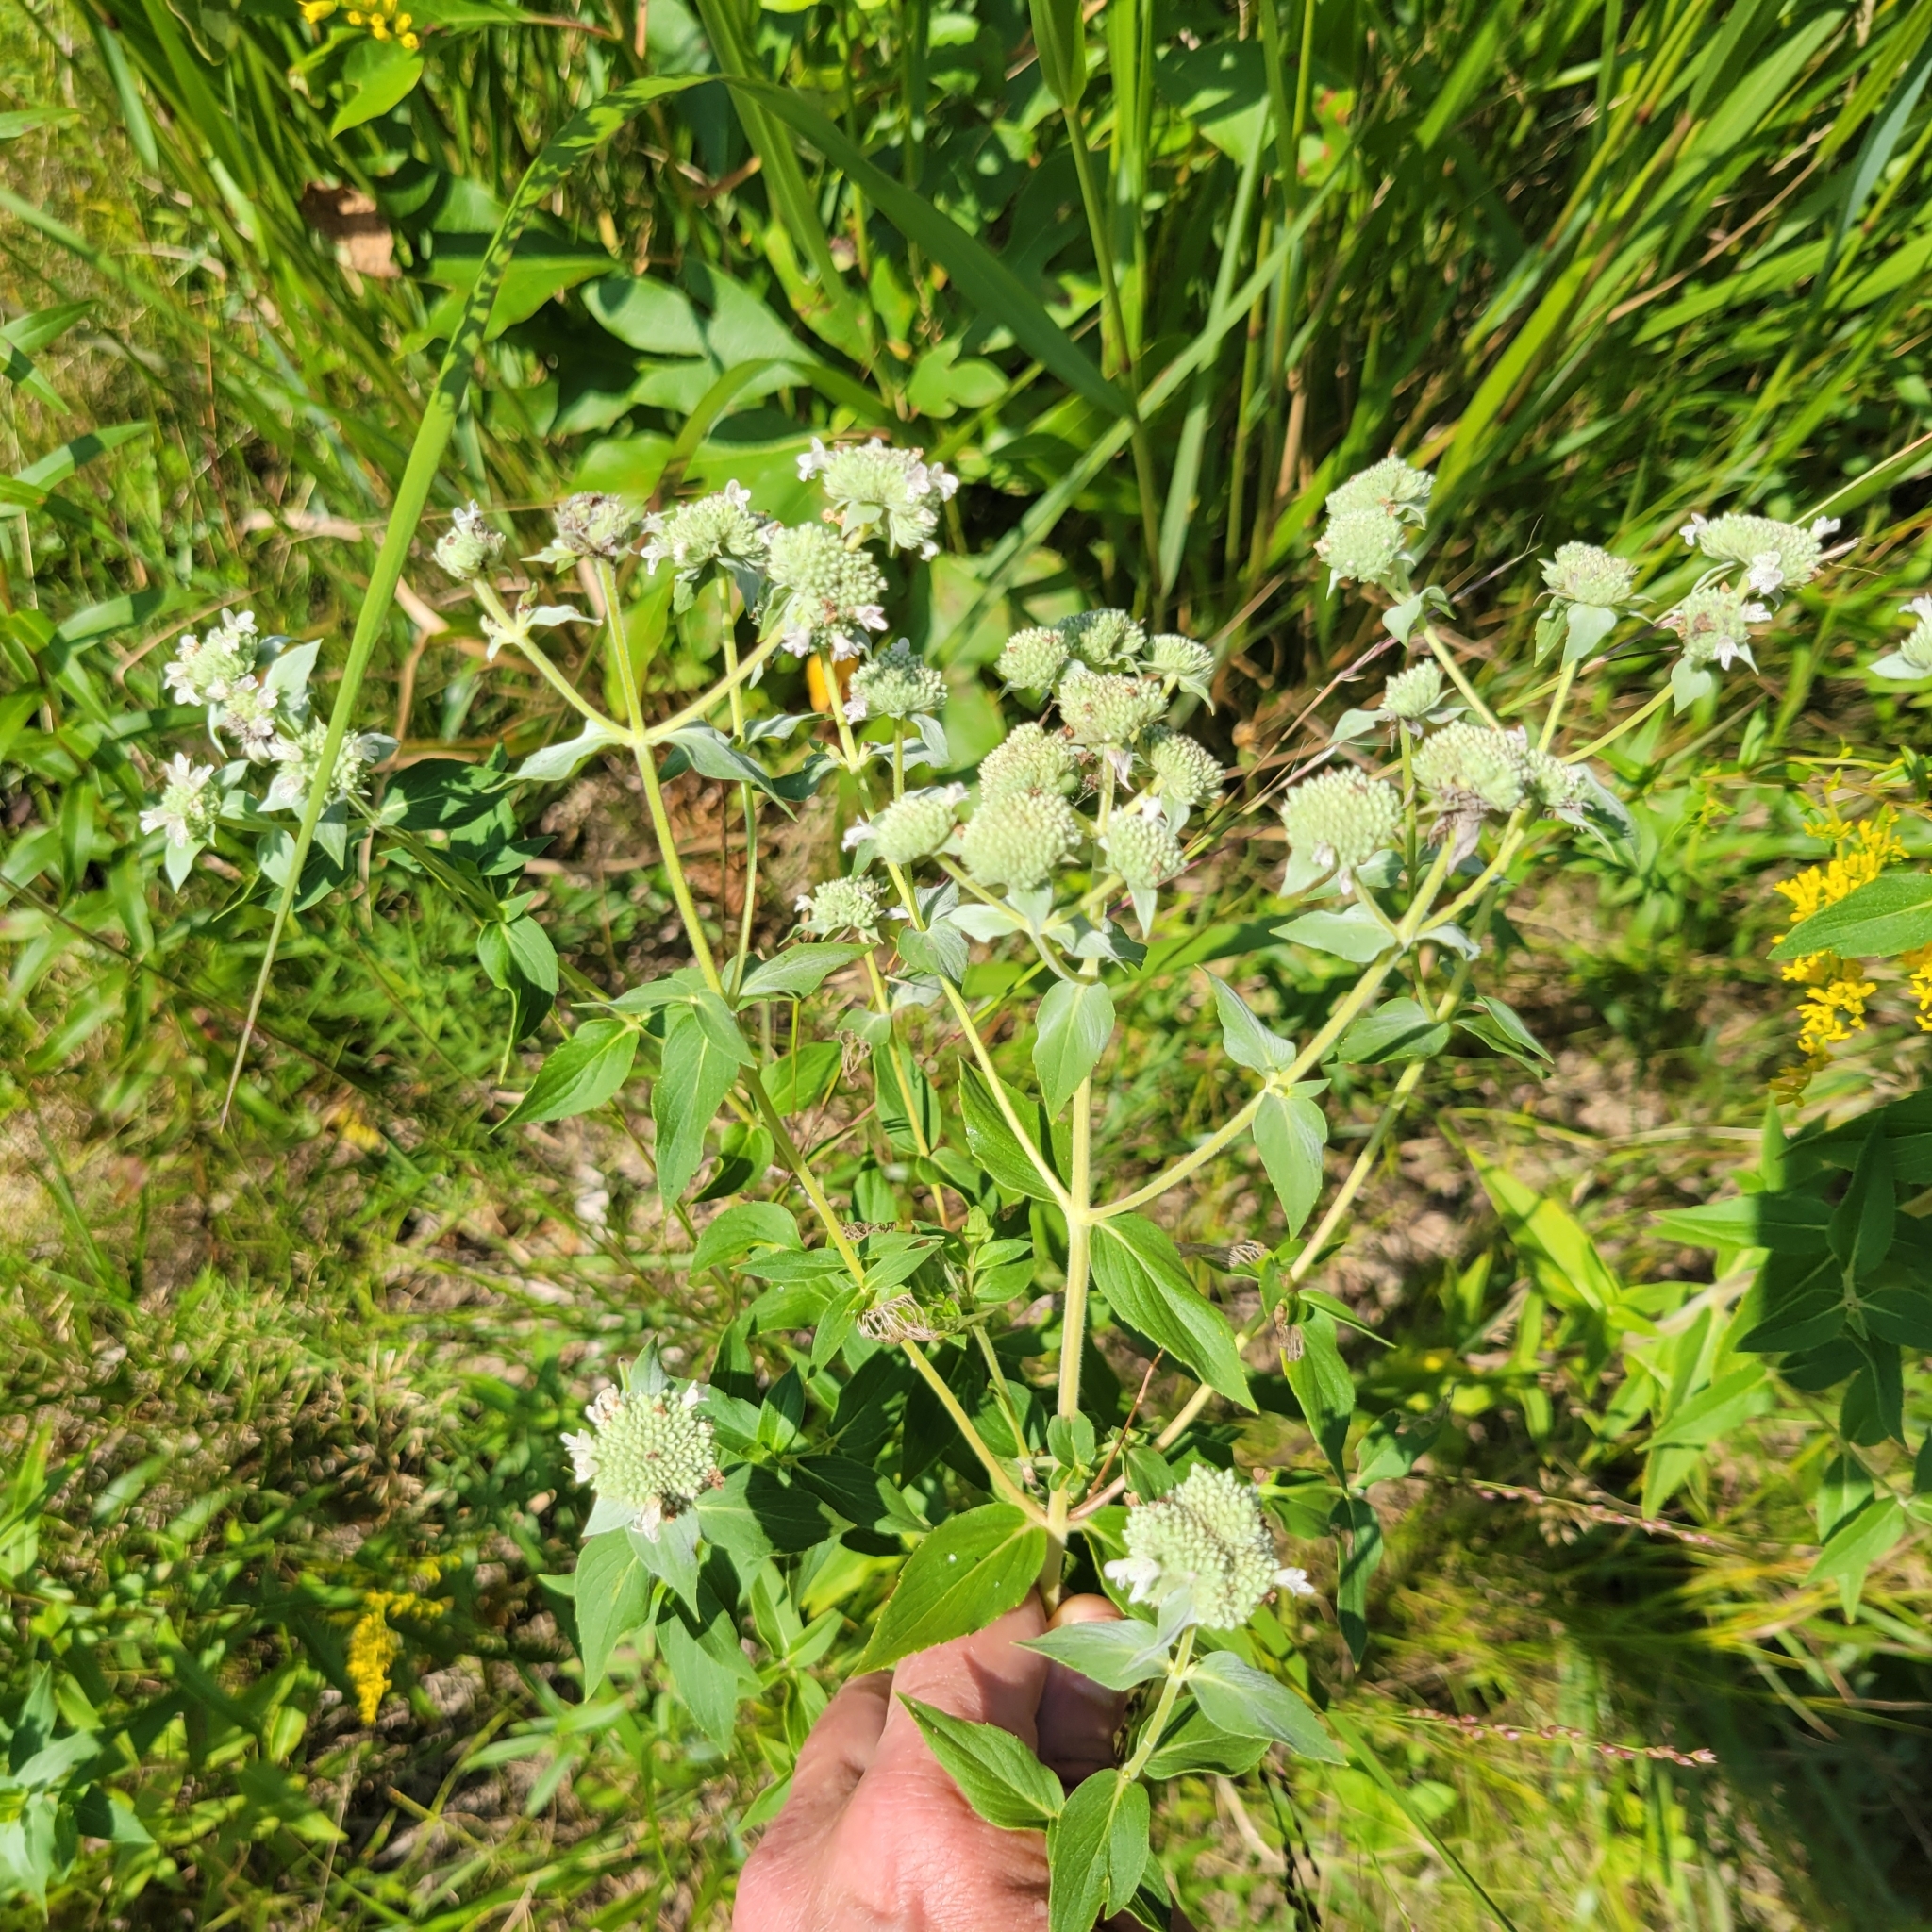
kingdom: Plantae
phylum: Tracheophyta
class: Magnoliopsida
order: Lamiales
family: Lamiaceae
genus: Pycnanthemum
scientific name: Pycnanthemum muticum
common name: Blunt mountain-mint
